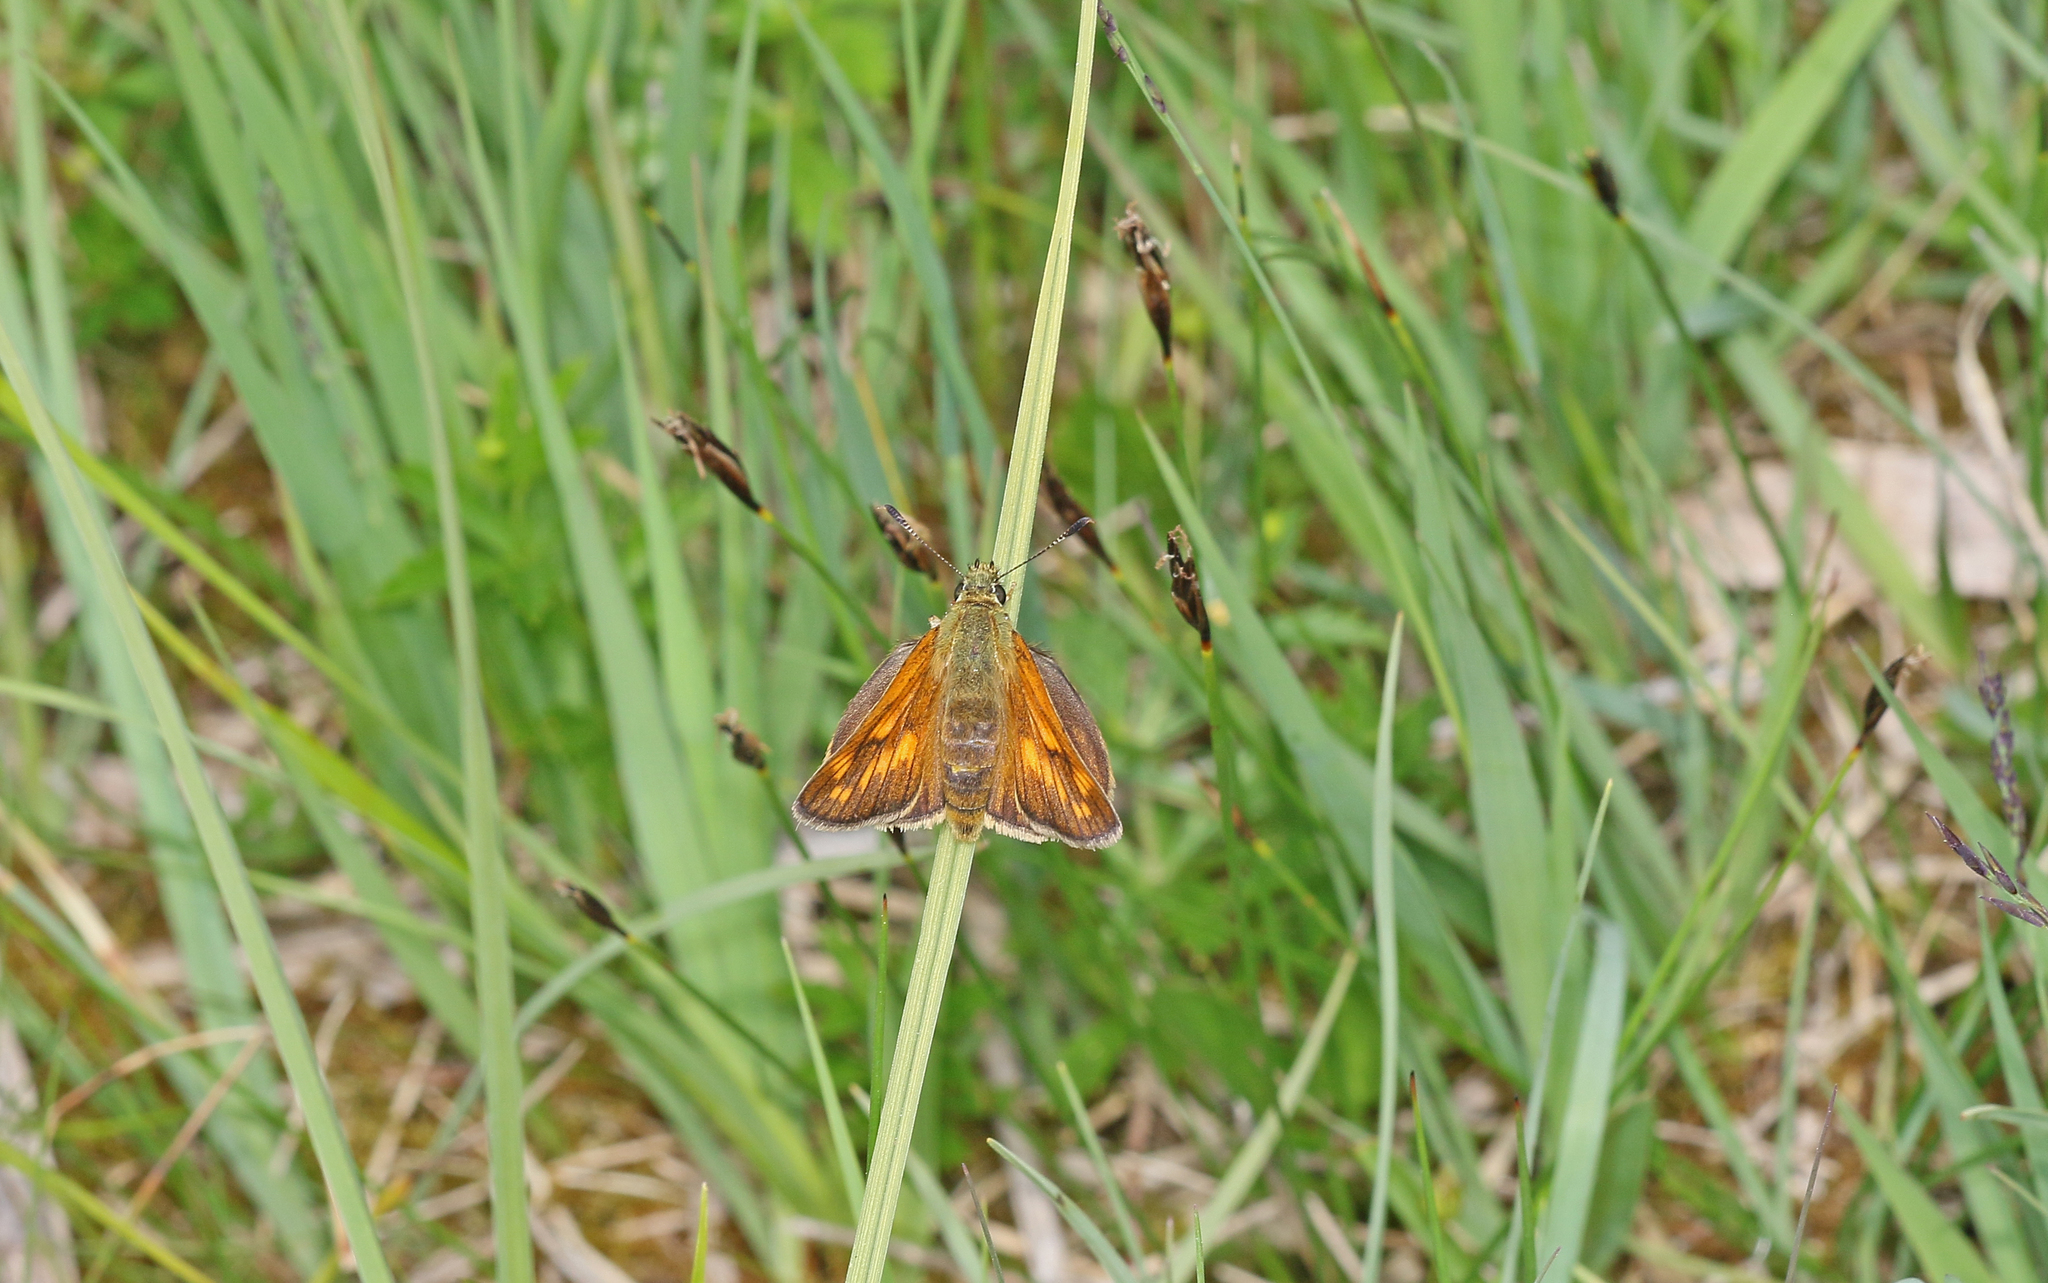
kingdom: Animalia
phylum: Arthropoda
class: Insecta
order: Lepidoptera
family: Hesperiidae
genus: Ochlodes
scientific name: Ochlodes venata
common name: Large skipper
